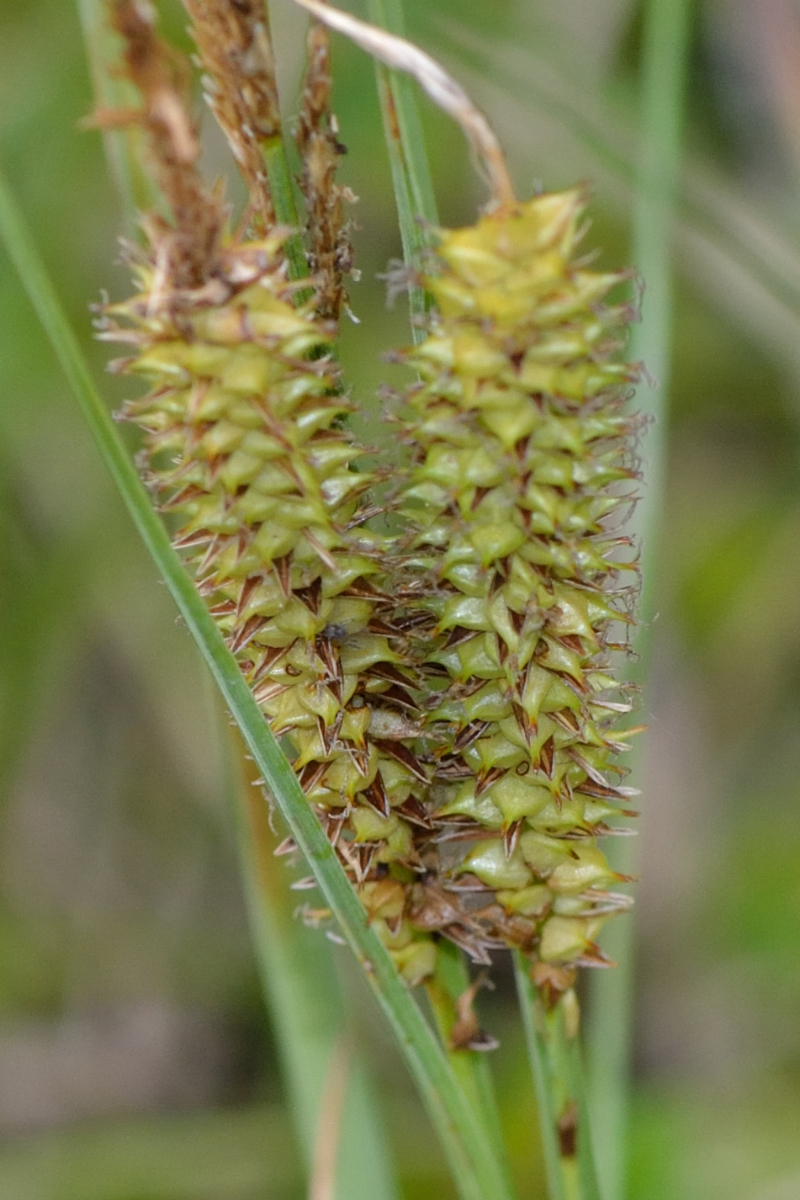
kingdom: Plantae
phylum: Tracheophyta
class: Liliopsida
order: Poales
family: Cyperaceae
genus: Carex
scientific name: Carex rostrata
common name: Bottle sedge
